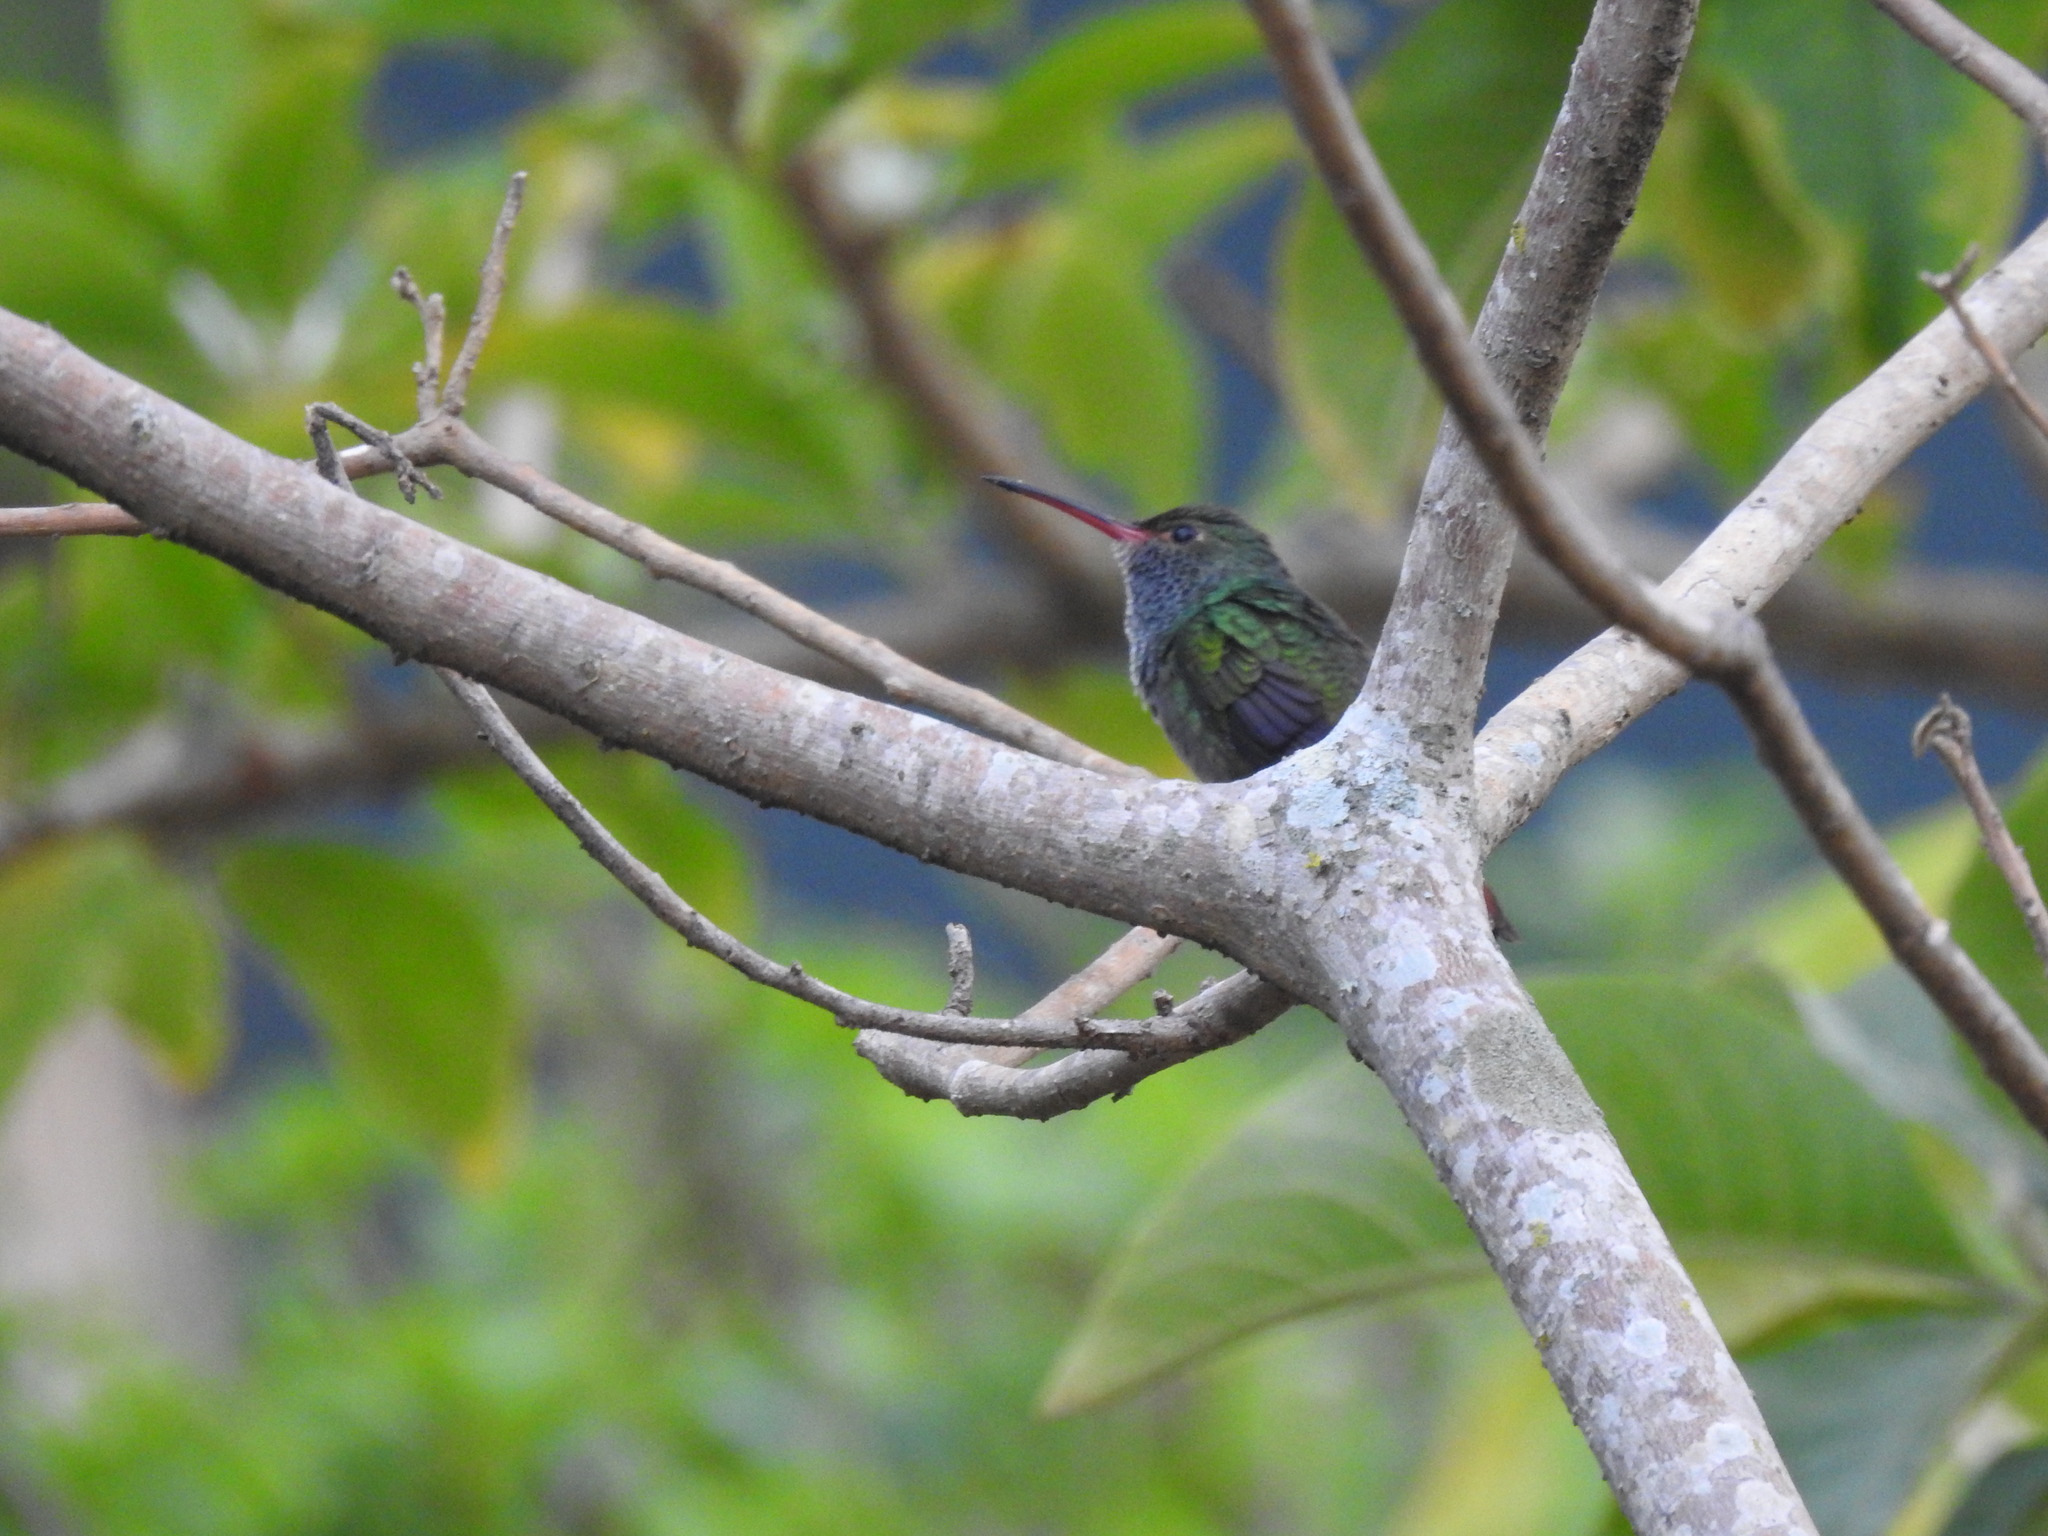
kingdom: Animalia
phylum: Chordata
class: Aves
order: Apodiformes
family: Trochilidae
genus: Amazilia
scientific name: Amazilia tzacatl
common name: Rufous-tailed hummingbird
